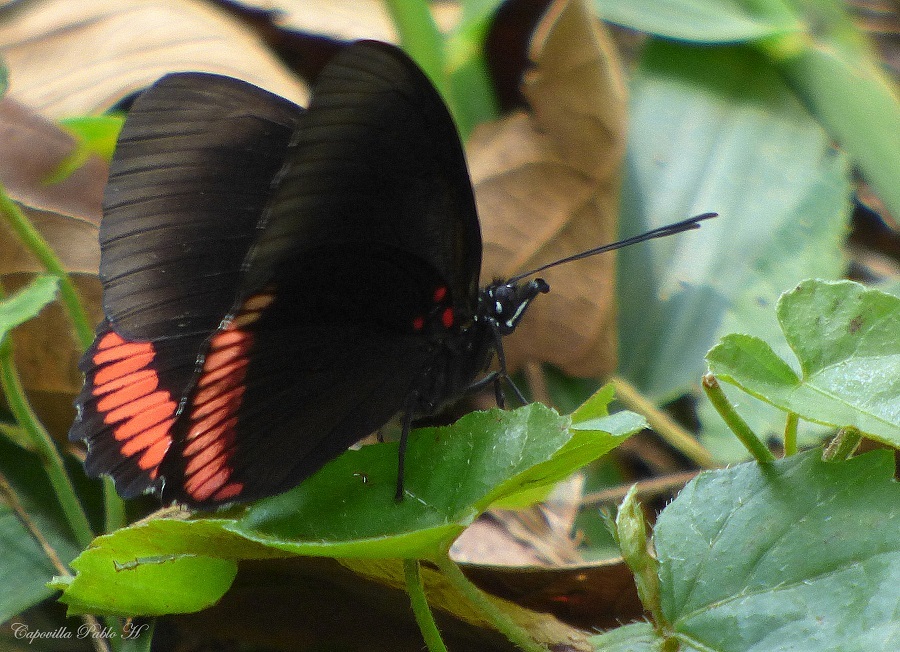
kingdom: Animalia
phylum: Arthropoda
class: Insecta
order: Lepidoptera
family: Sesiidae
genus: Sesia
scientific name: Sesia Biblis hyperia
